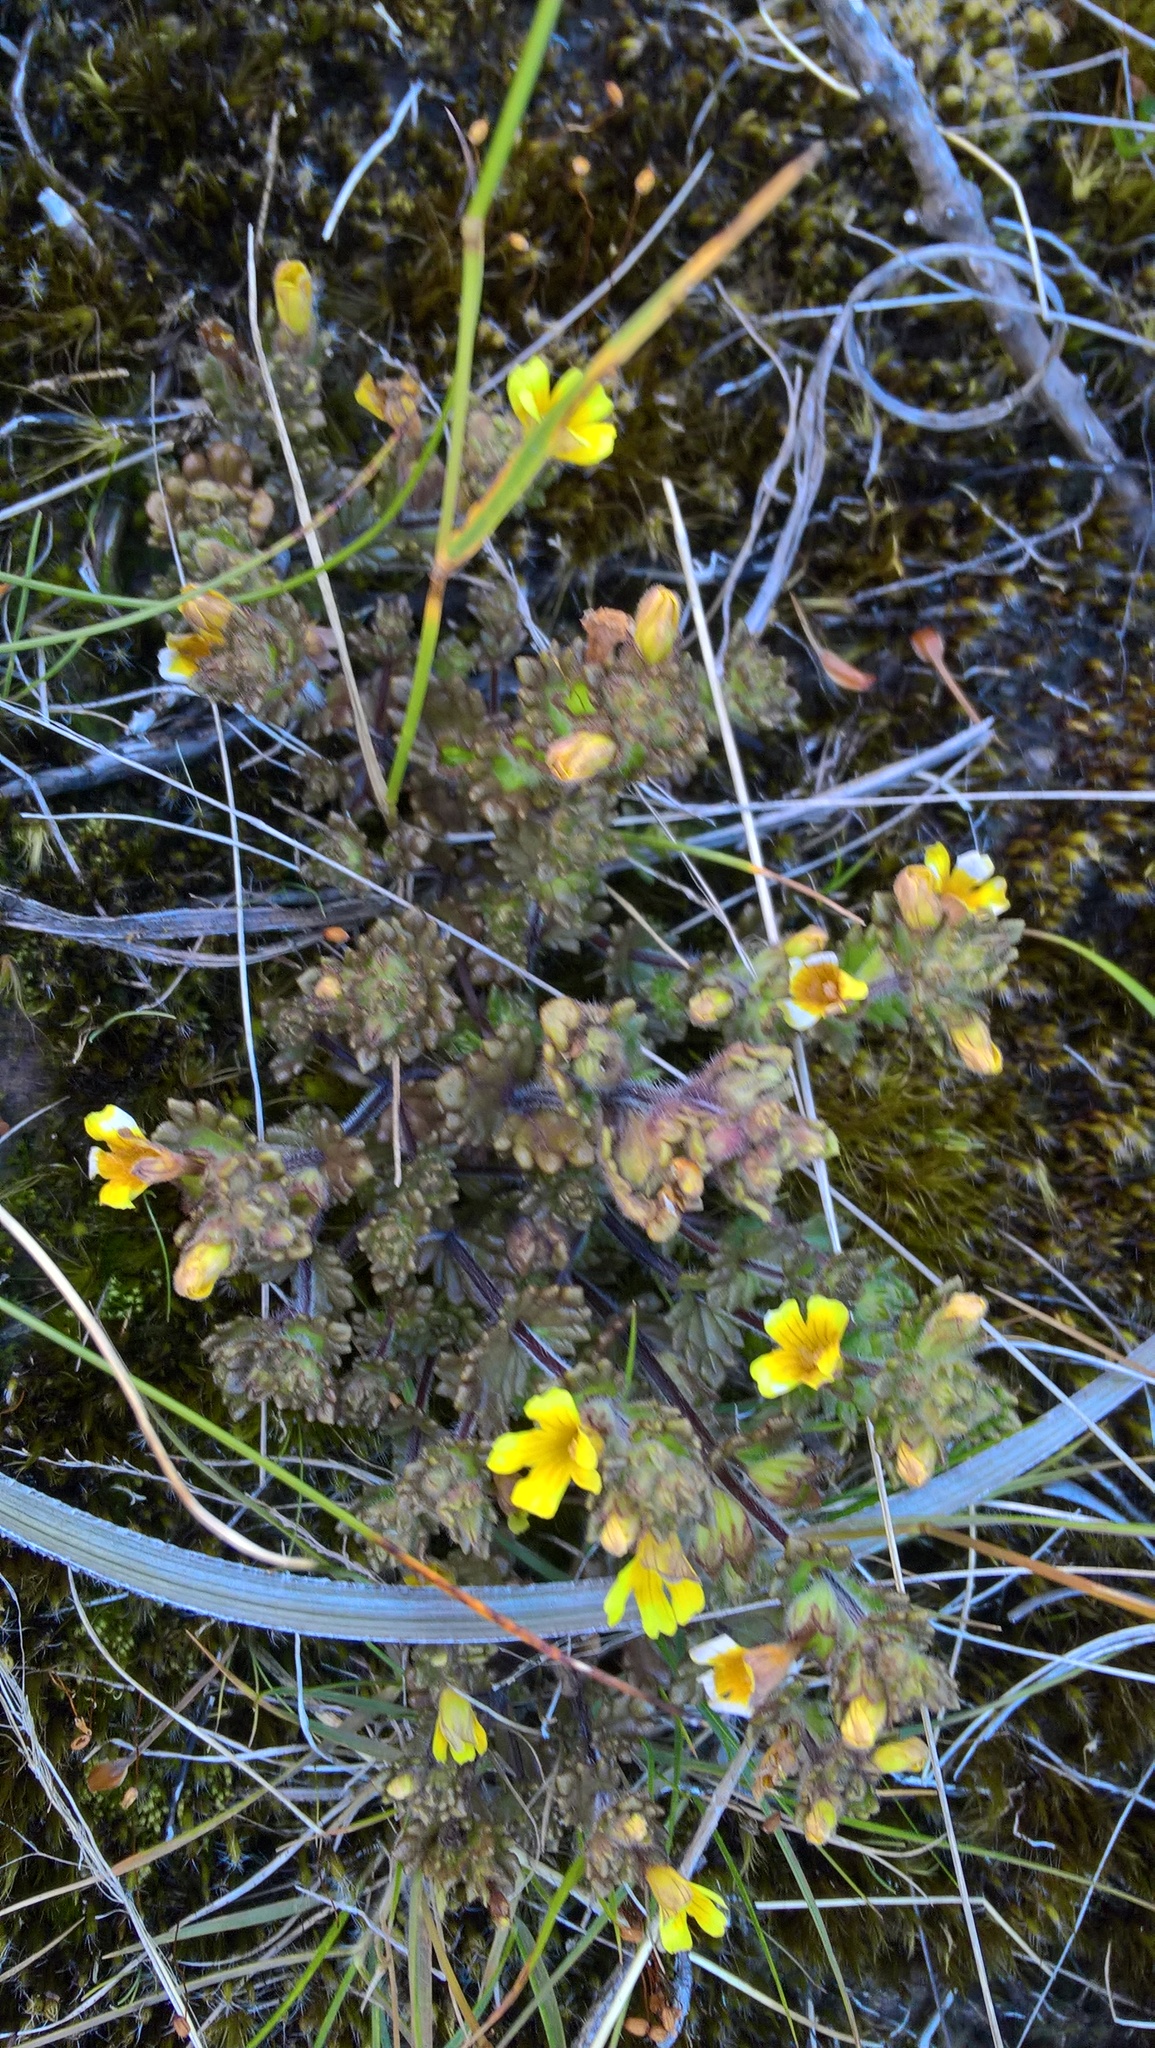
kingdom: Plantae
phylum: Tracheophyta
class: Magnoliopsida
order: Lamiales
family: Orobanchaceae
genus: Euphrasia
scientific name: Euphrasia cockayneana
